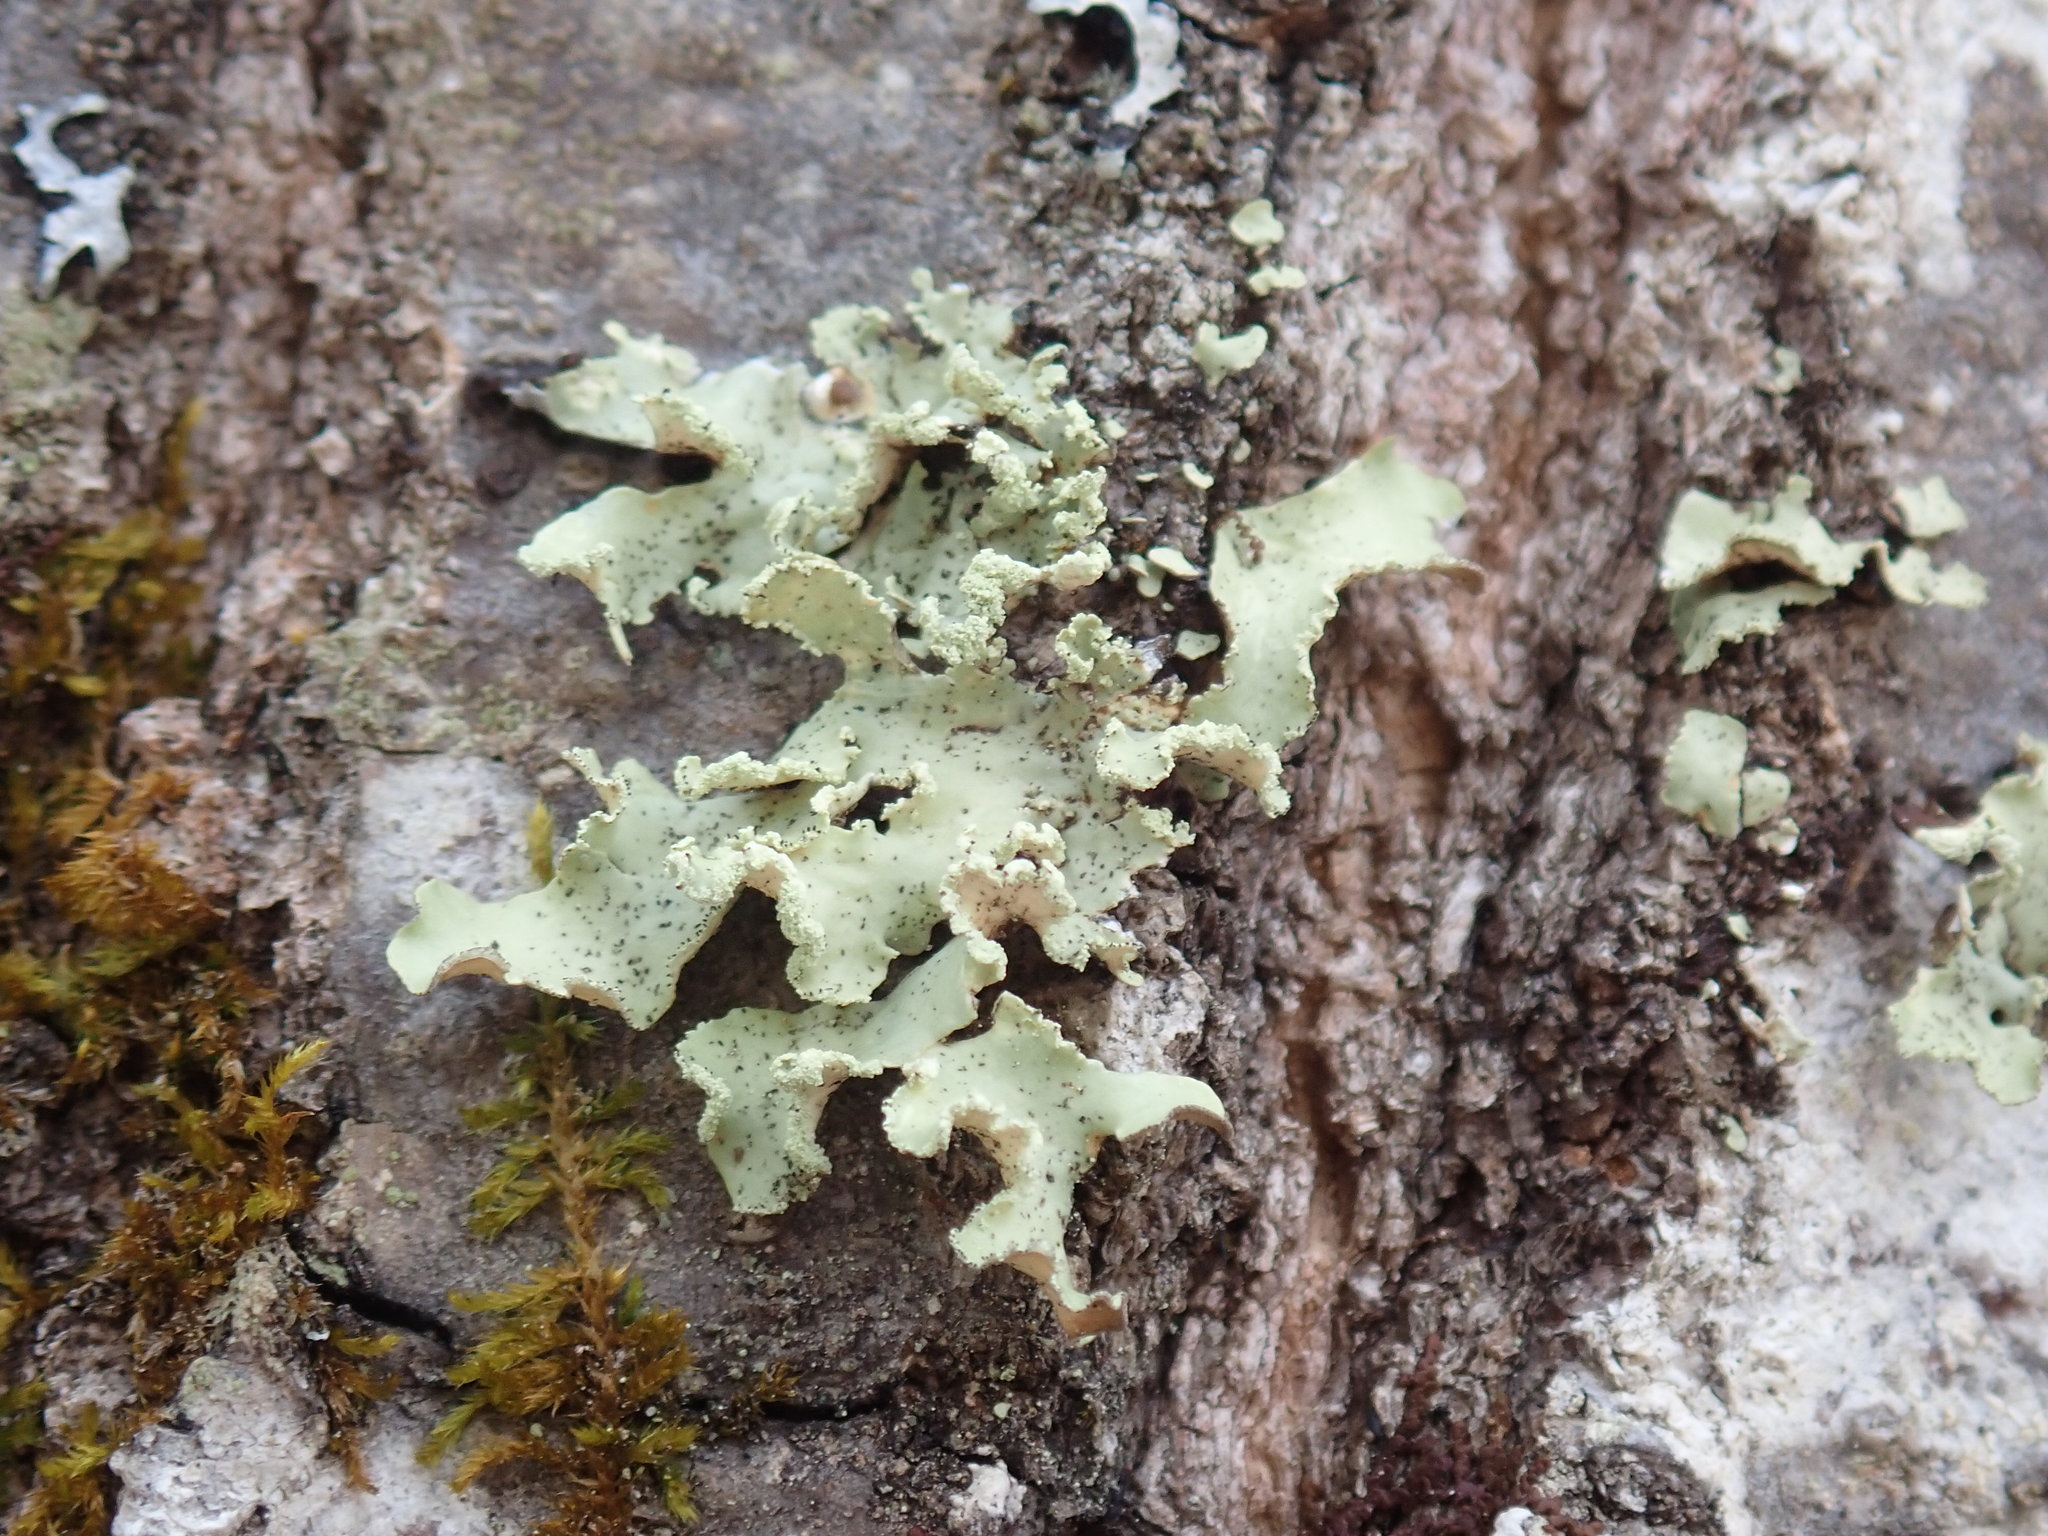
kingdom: Fungi
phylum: Ascomycota
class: Lecanoromycetes
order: Lecanorales
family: Parmeliaceae
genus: Usnocetraria
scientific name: Usnocetraria oakesiana
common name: Yellow ribbon lichen
